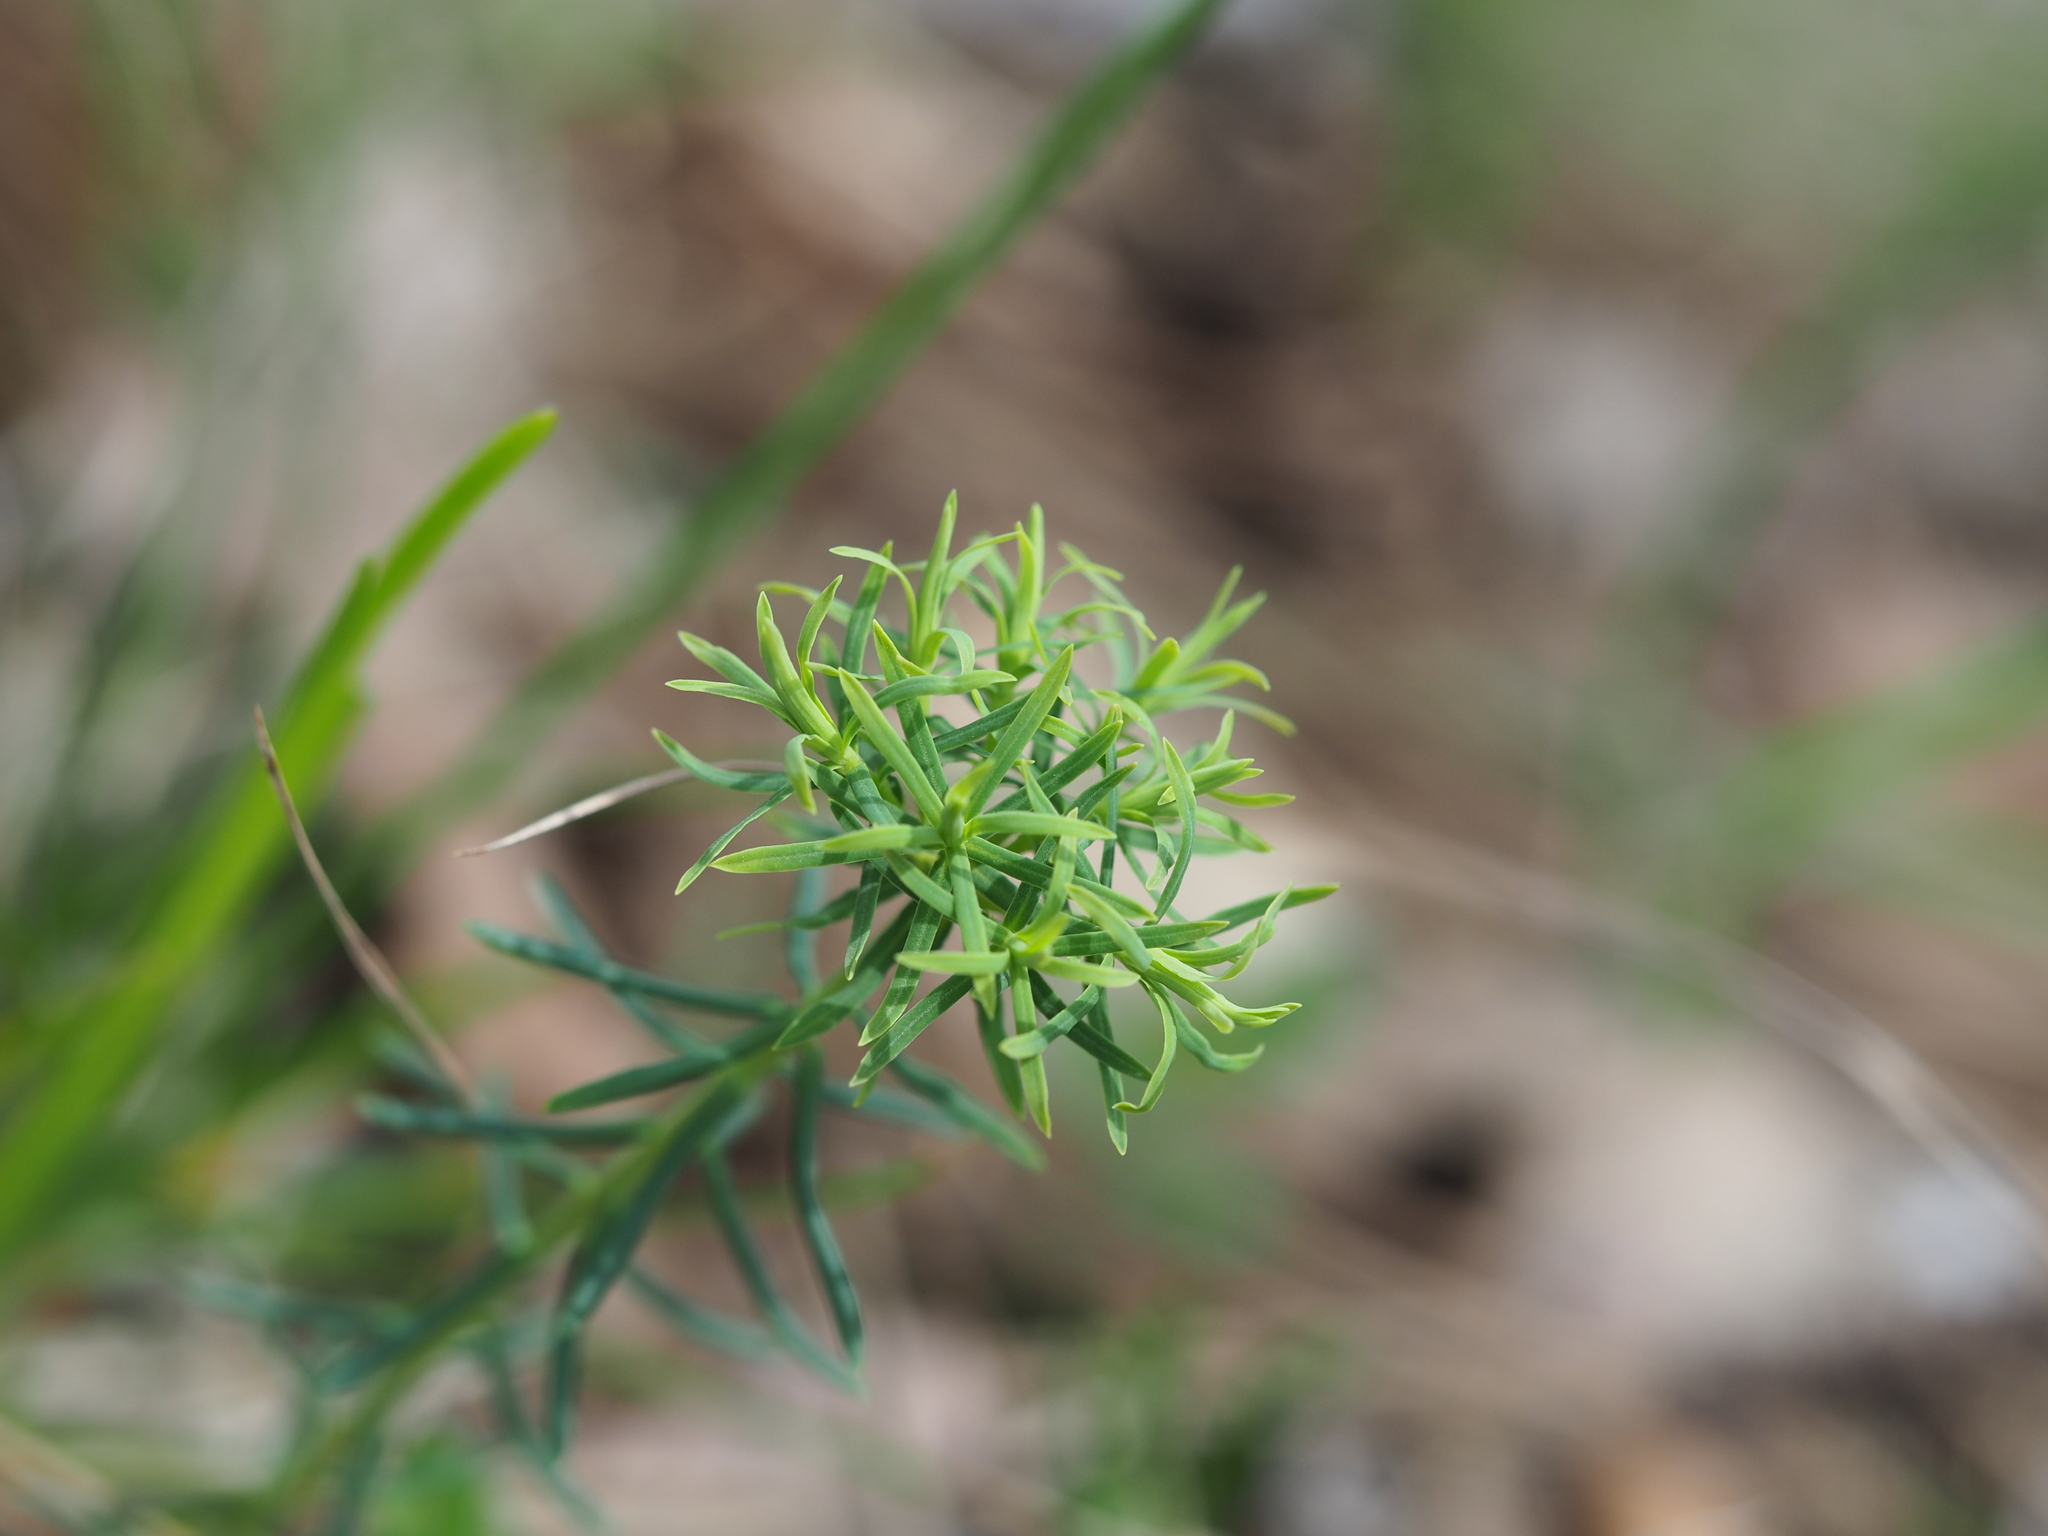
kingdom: Plantae
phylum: Tracheophyta
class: Magnoliopsida
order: Malpighiales
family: Euphorbiaceae
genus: Euphorbia
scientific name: Euphorbia cyparissias
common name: Cypress spurge
